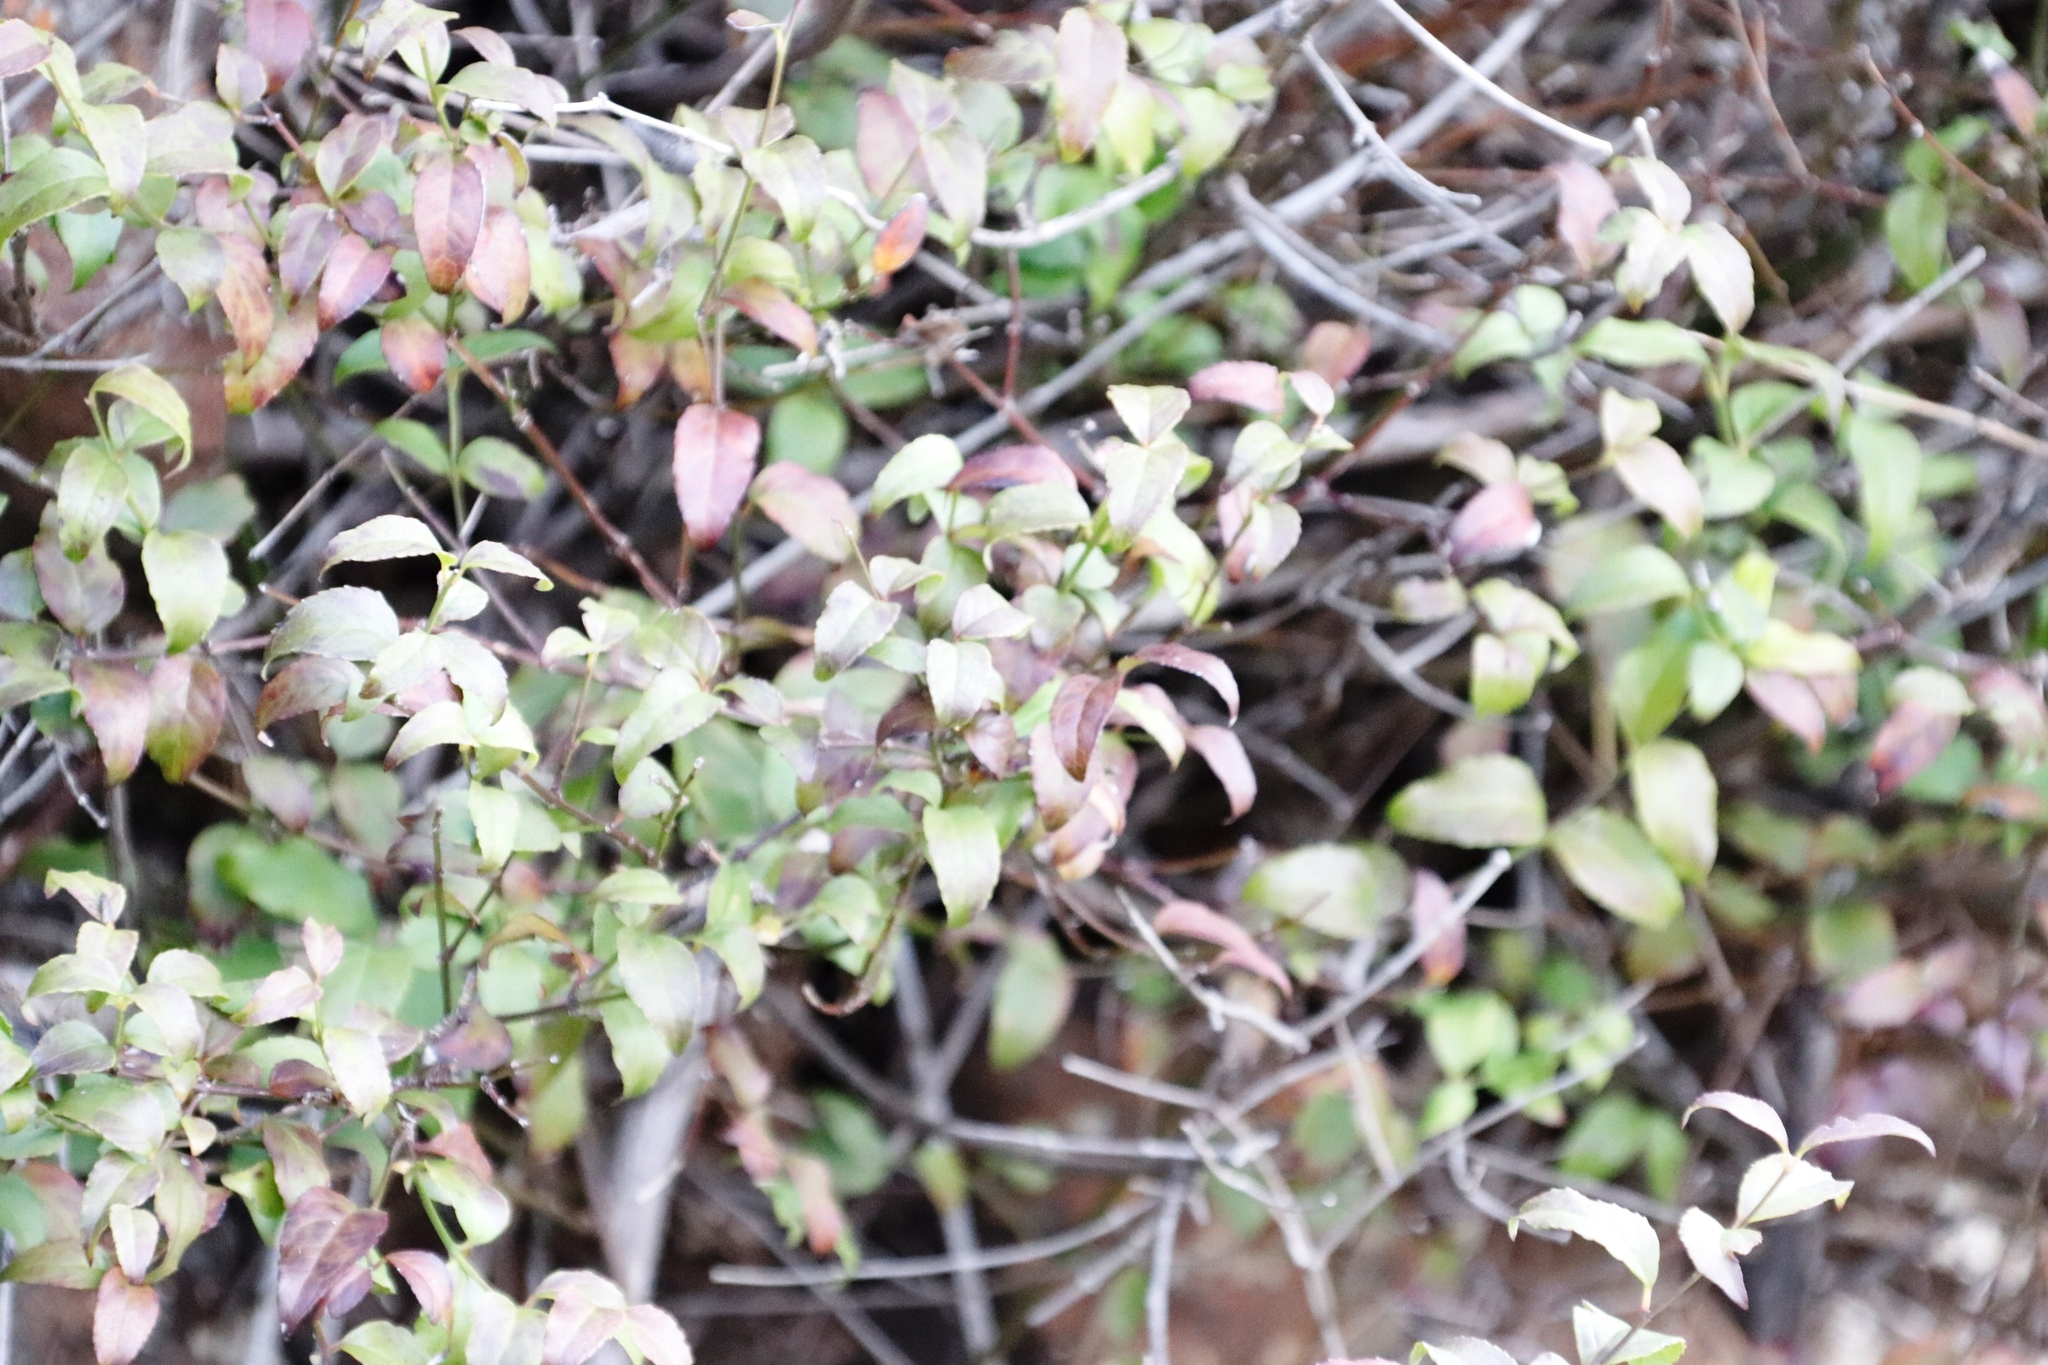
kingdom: Plantae
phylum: Tracheophyta
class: Magnoliopsida
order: Lamiales
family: Stilbaceae
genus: Halleria
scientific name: Halleria lucida
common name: Tree fuschia
